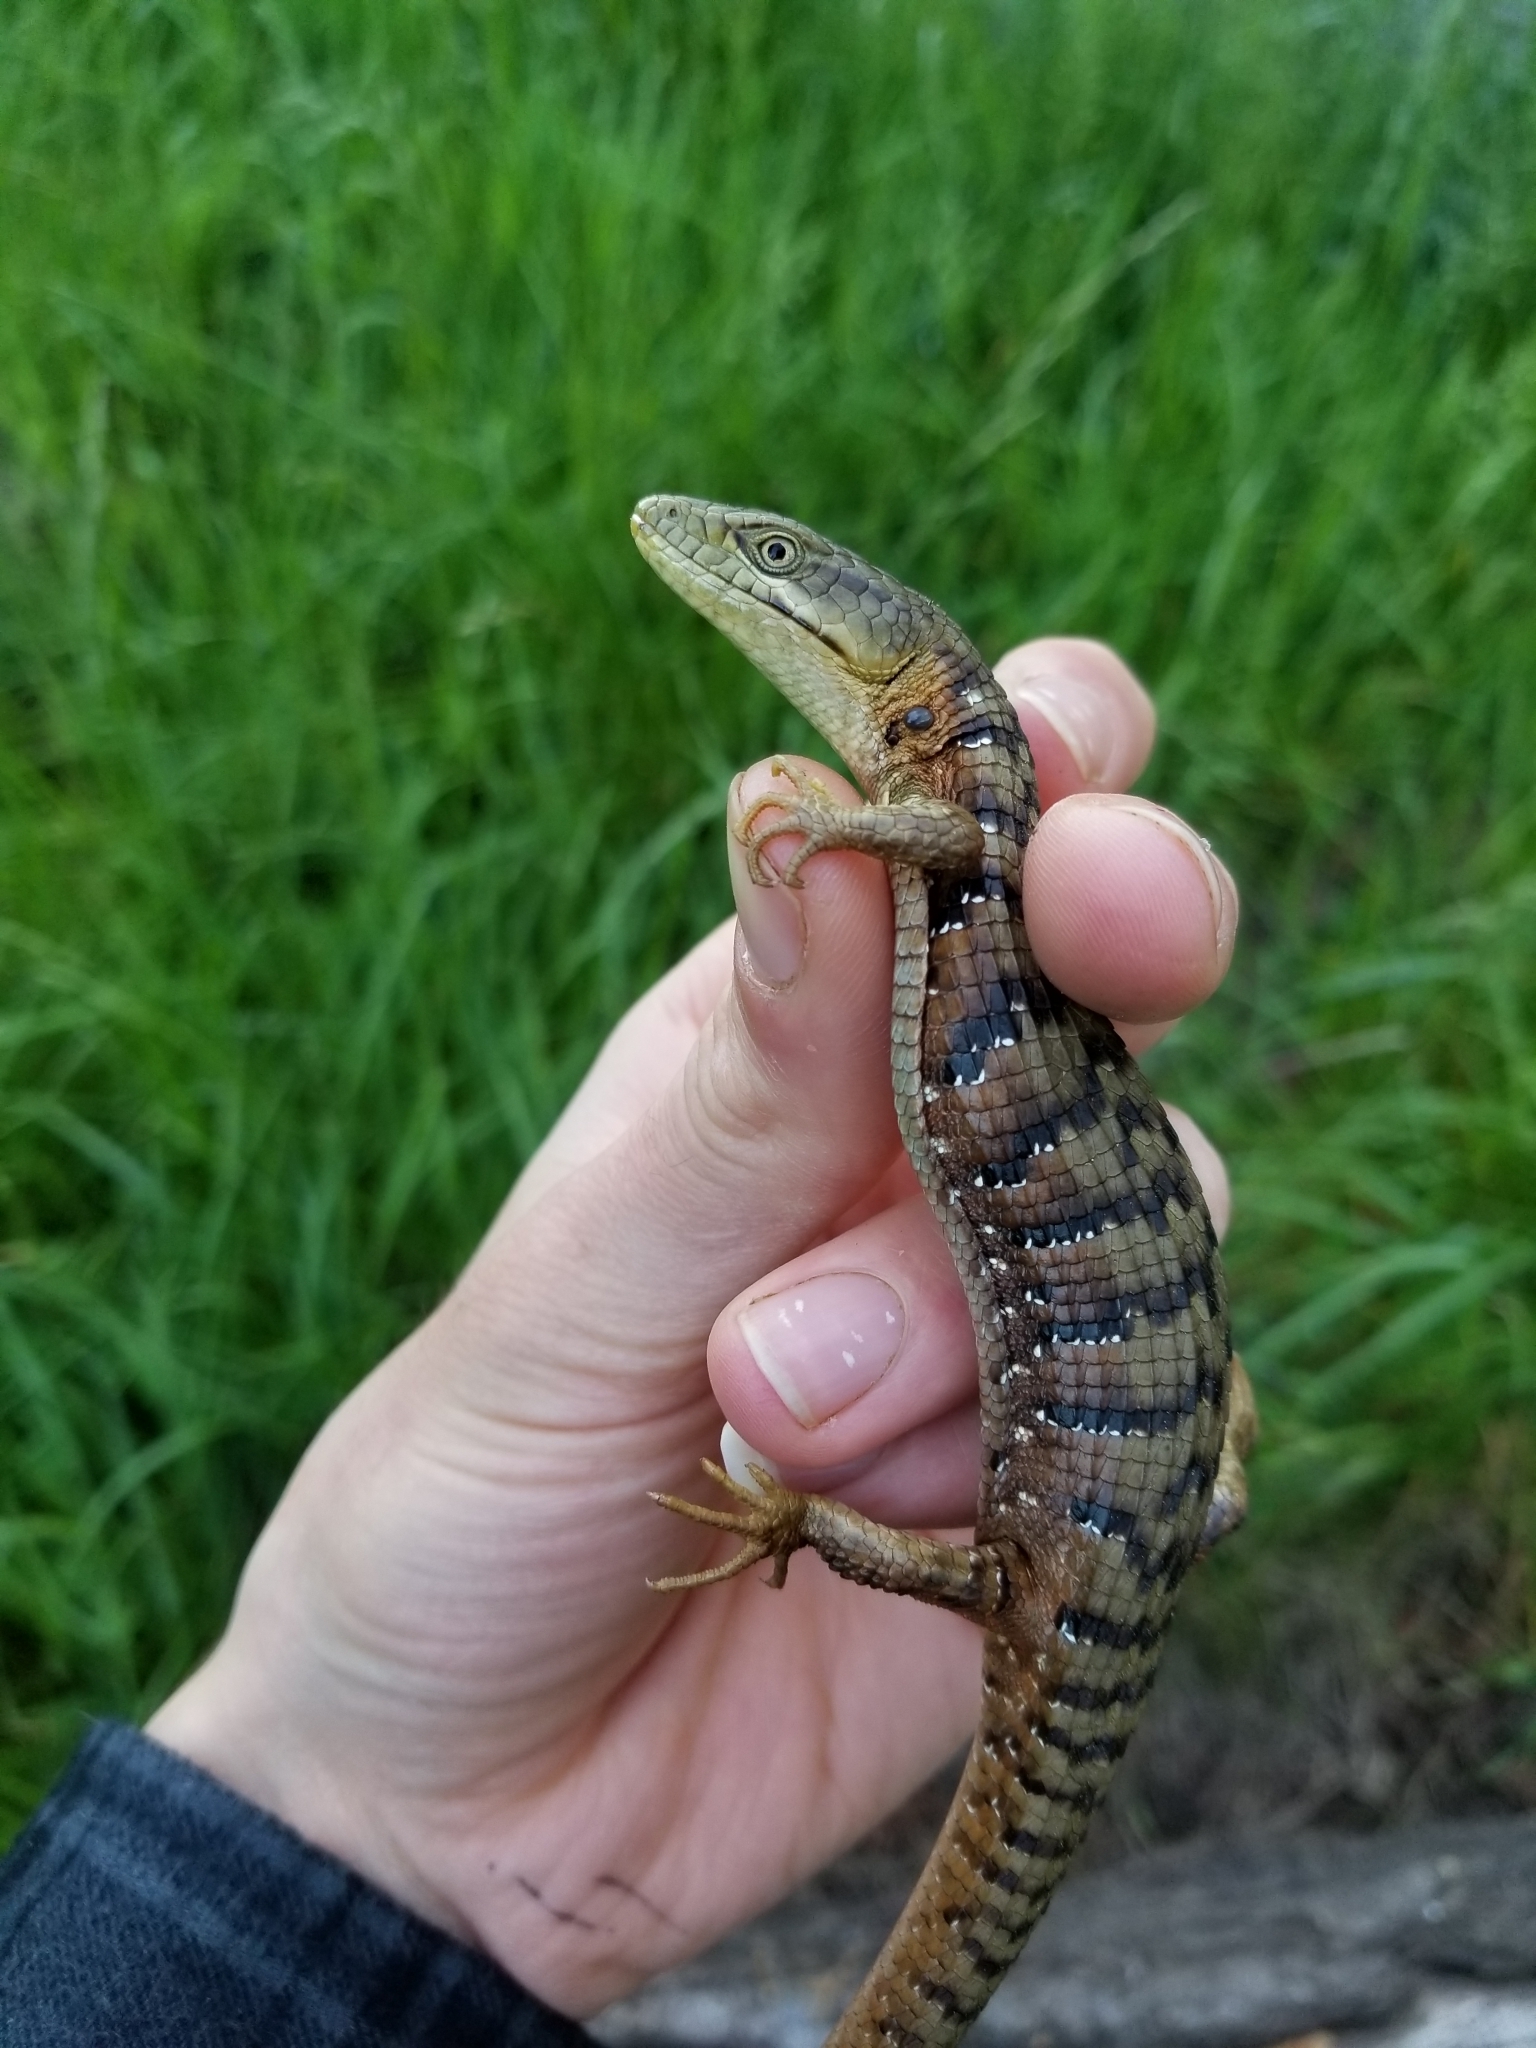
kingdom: Animalia
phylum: Chordata
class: Squamata
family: Anguidae
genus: Elgaria
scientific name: Elgaria multicarinata
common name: Southern alligator lizard
